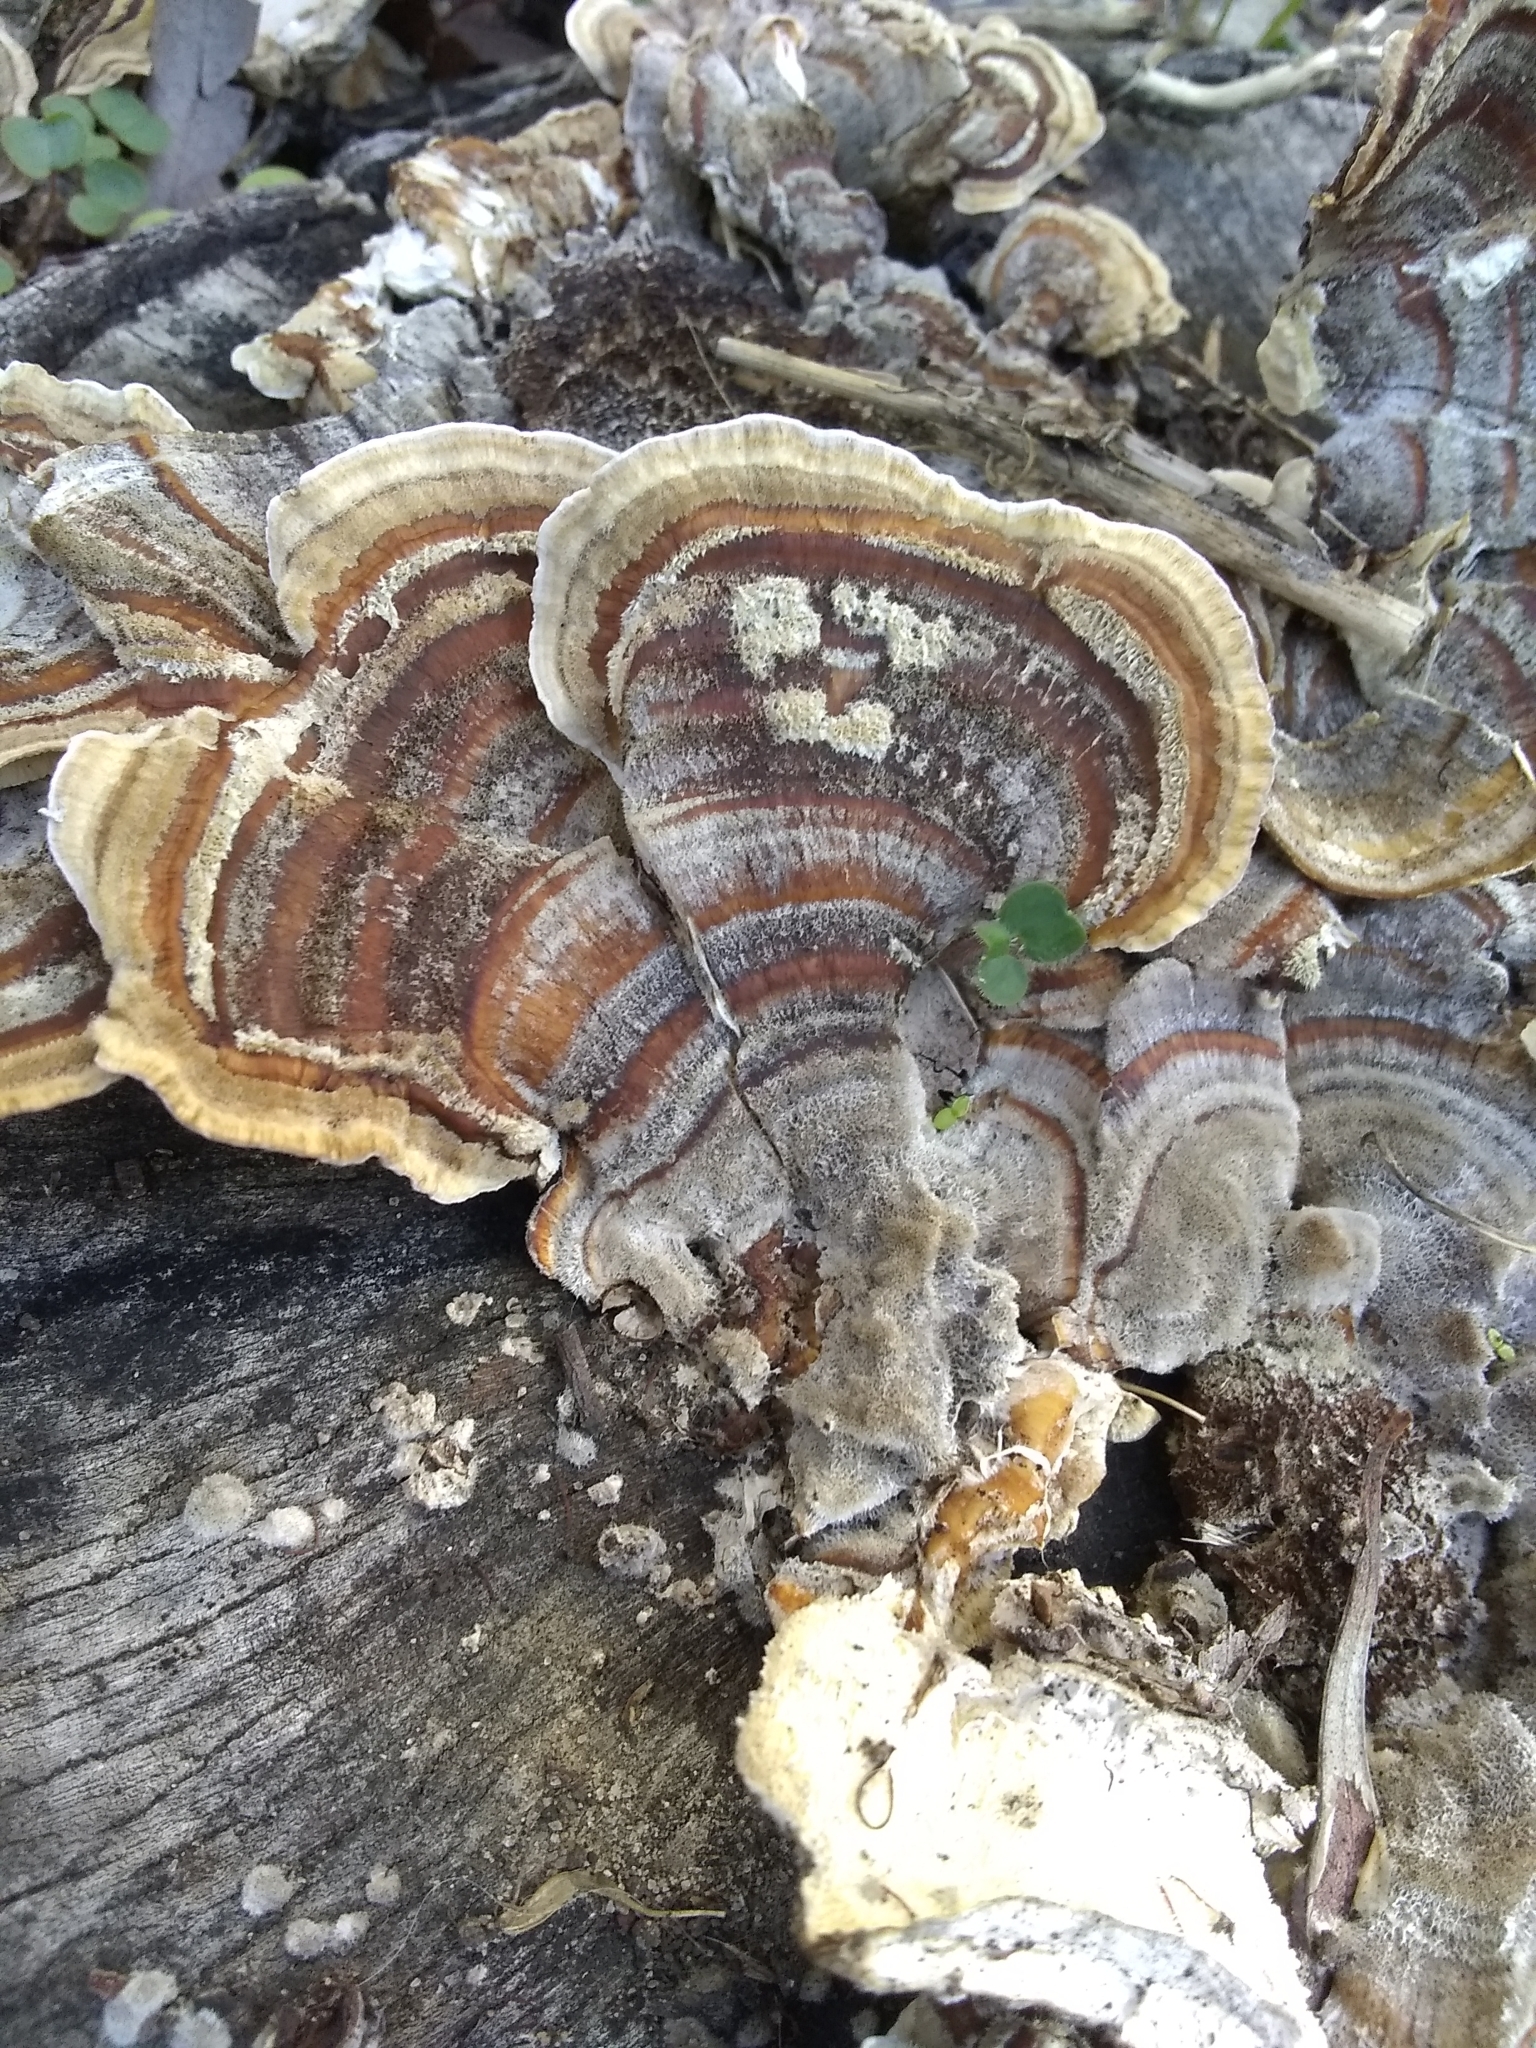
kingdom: Fungi
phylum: Basidiomycota
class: Agaricomycetes
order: Polyporales
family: Polyporaceae
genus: Trametes
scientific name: Trametes versicolor
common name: Turkeytail
